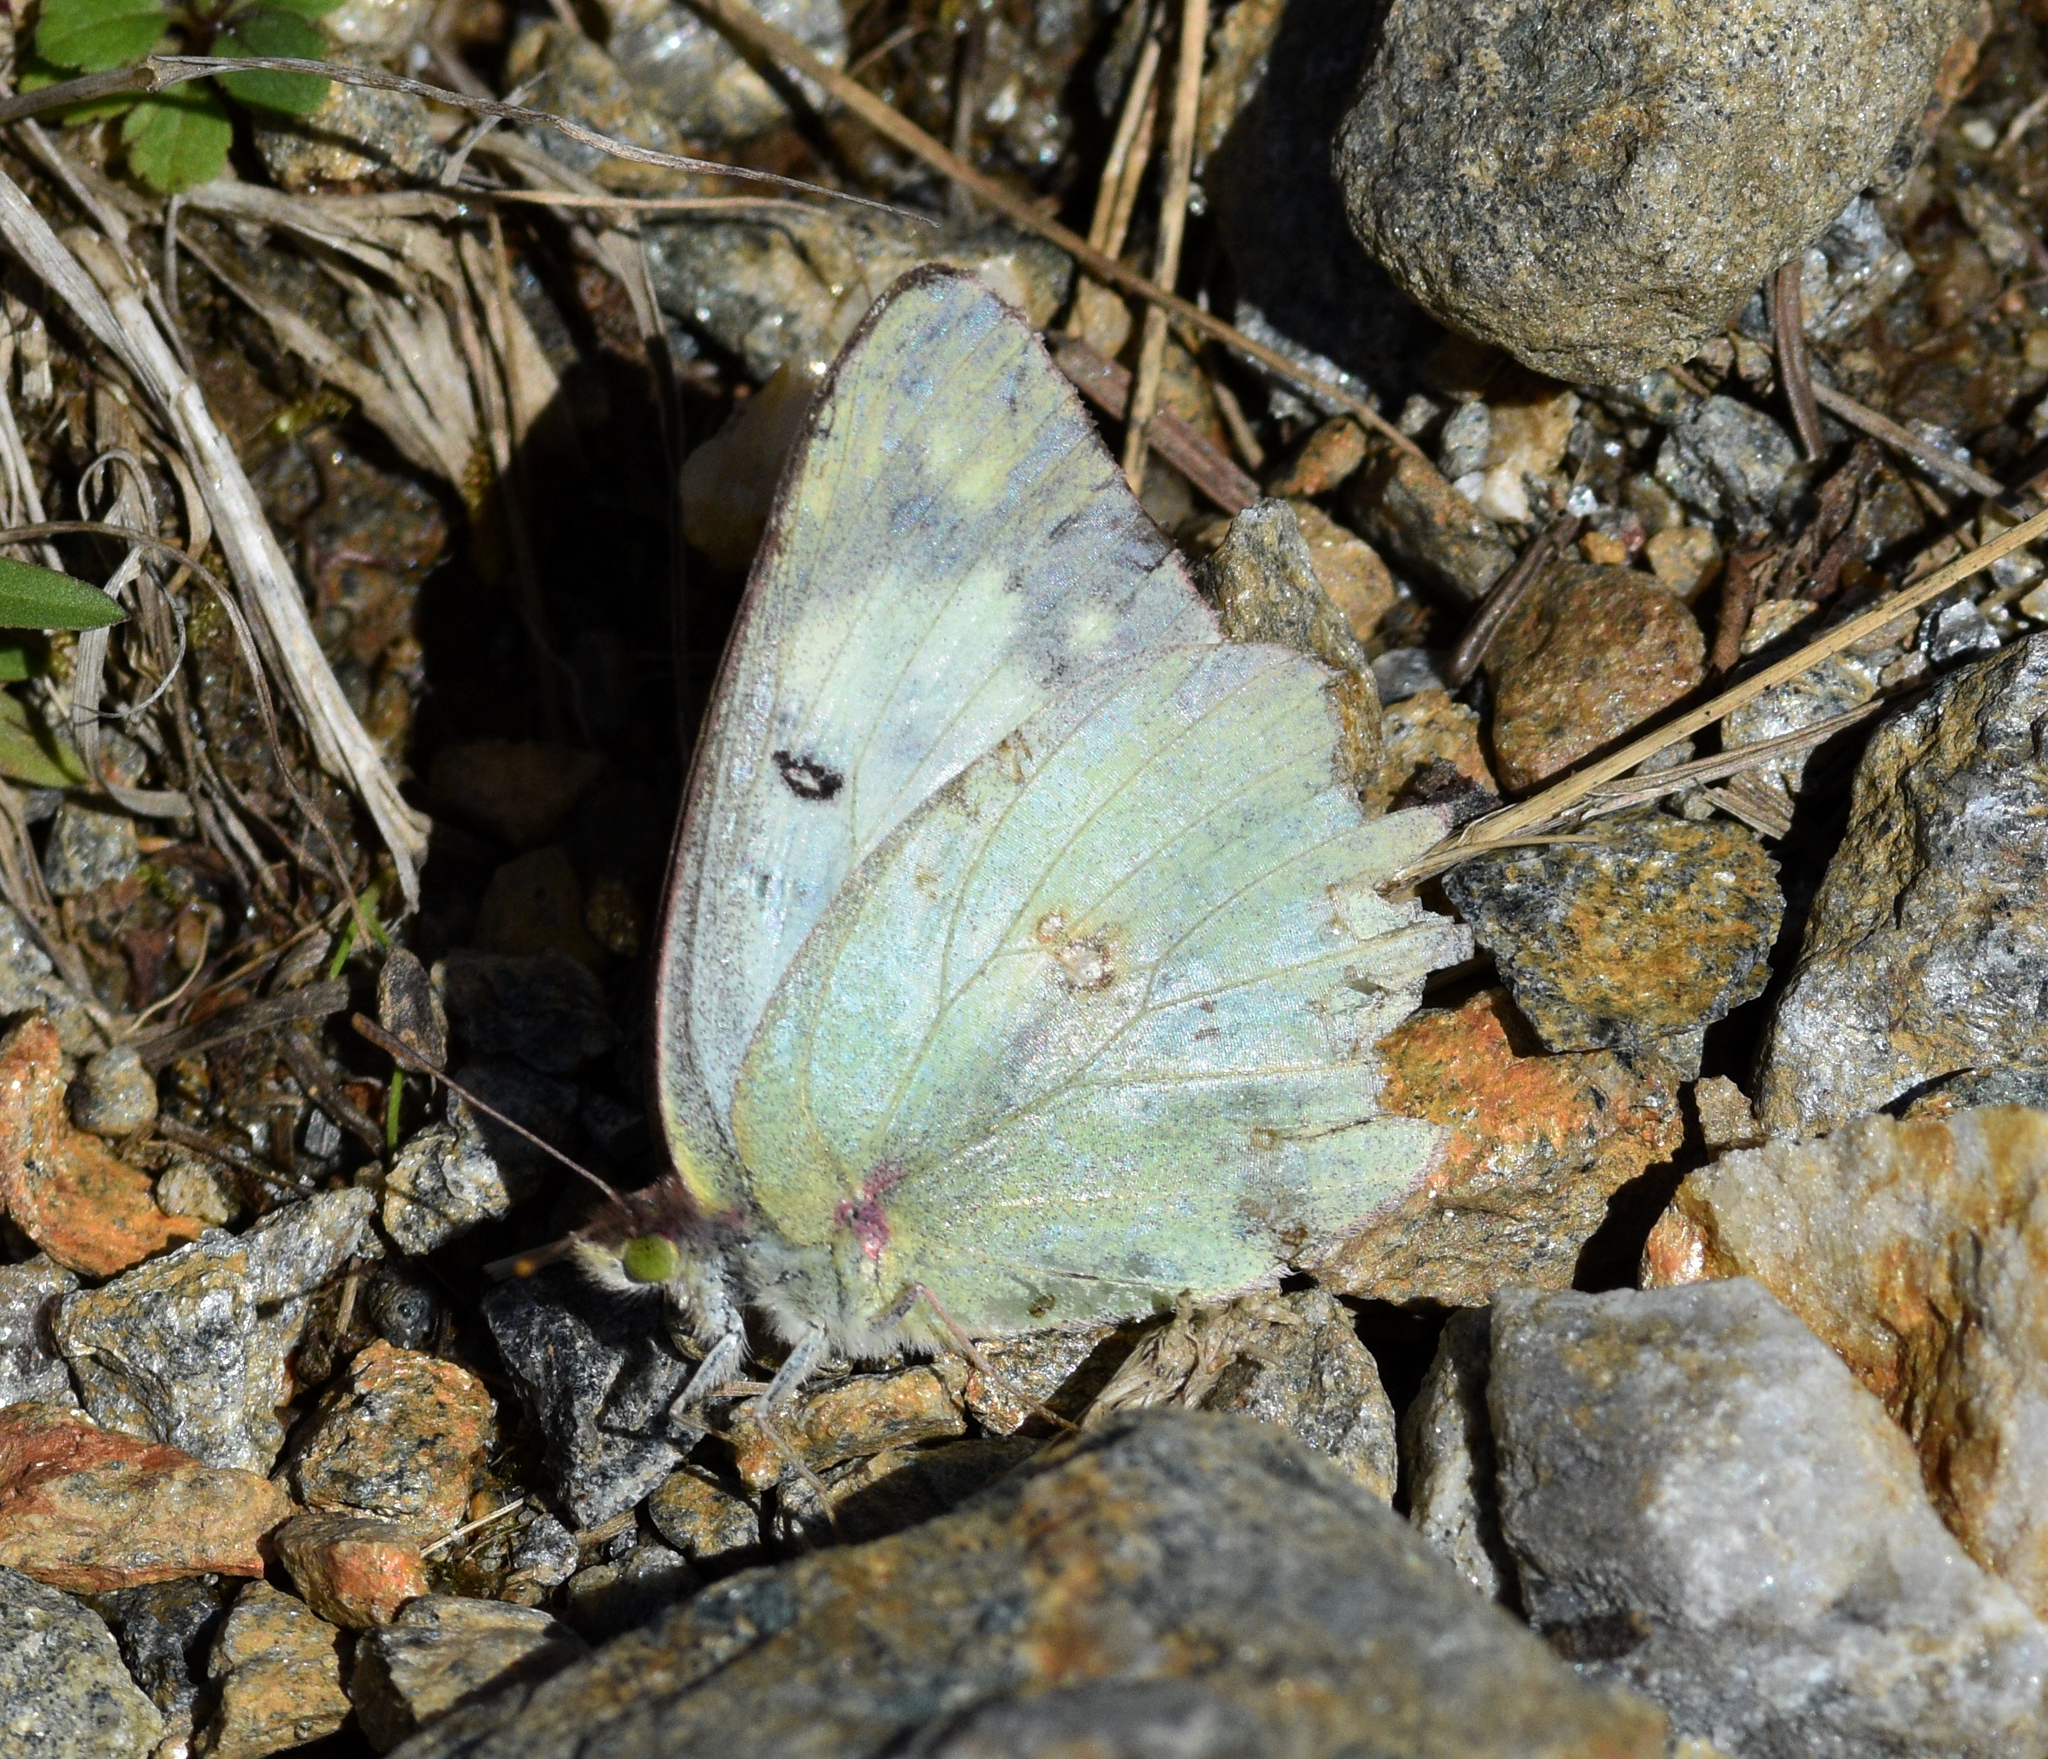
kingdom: Animalia
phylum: Arthropoda
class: Insecta
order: Lepidoptera
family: Pieridae
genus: Colias
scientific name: Colias philodice
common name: Clouded sulphur
